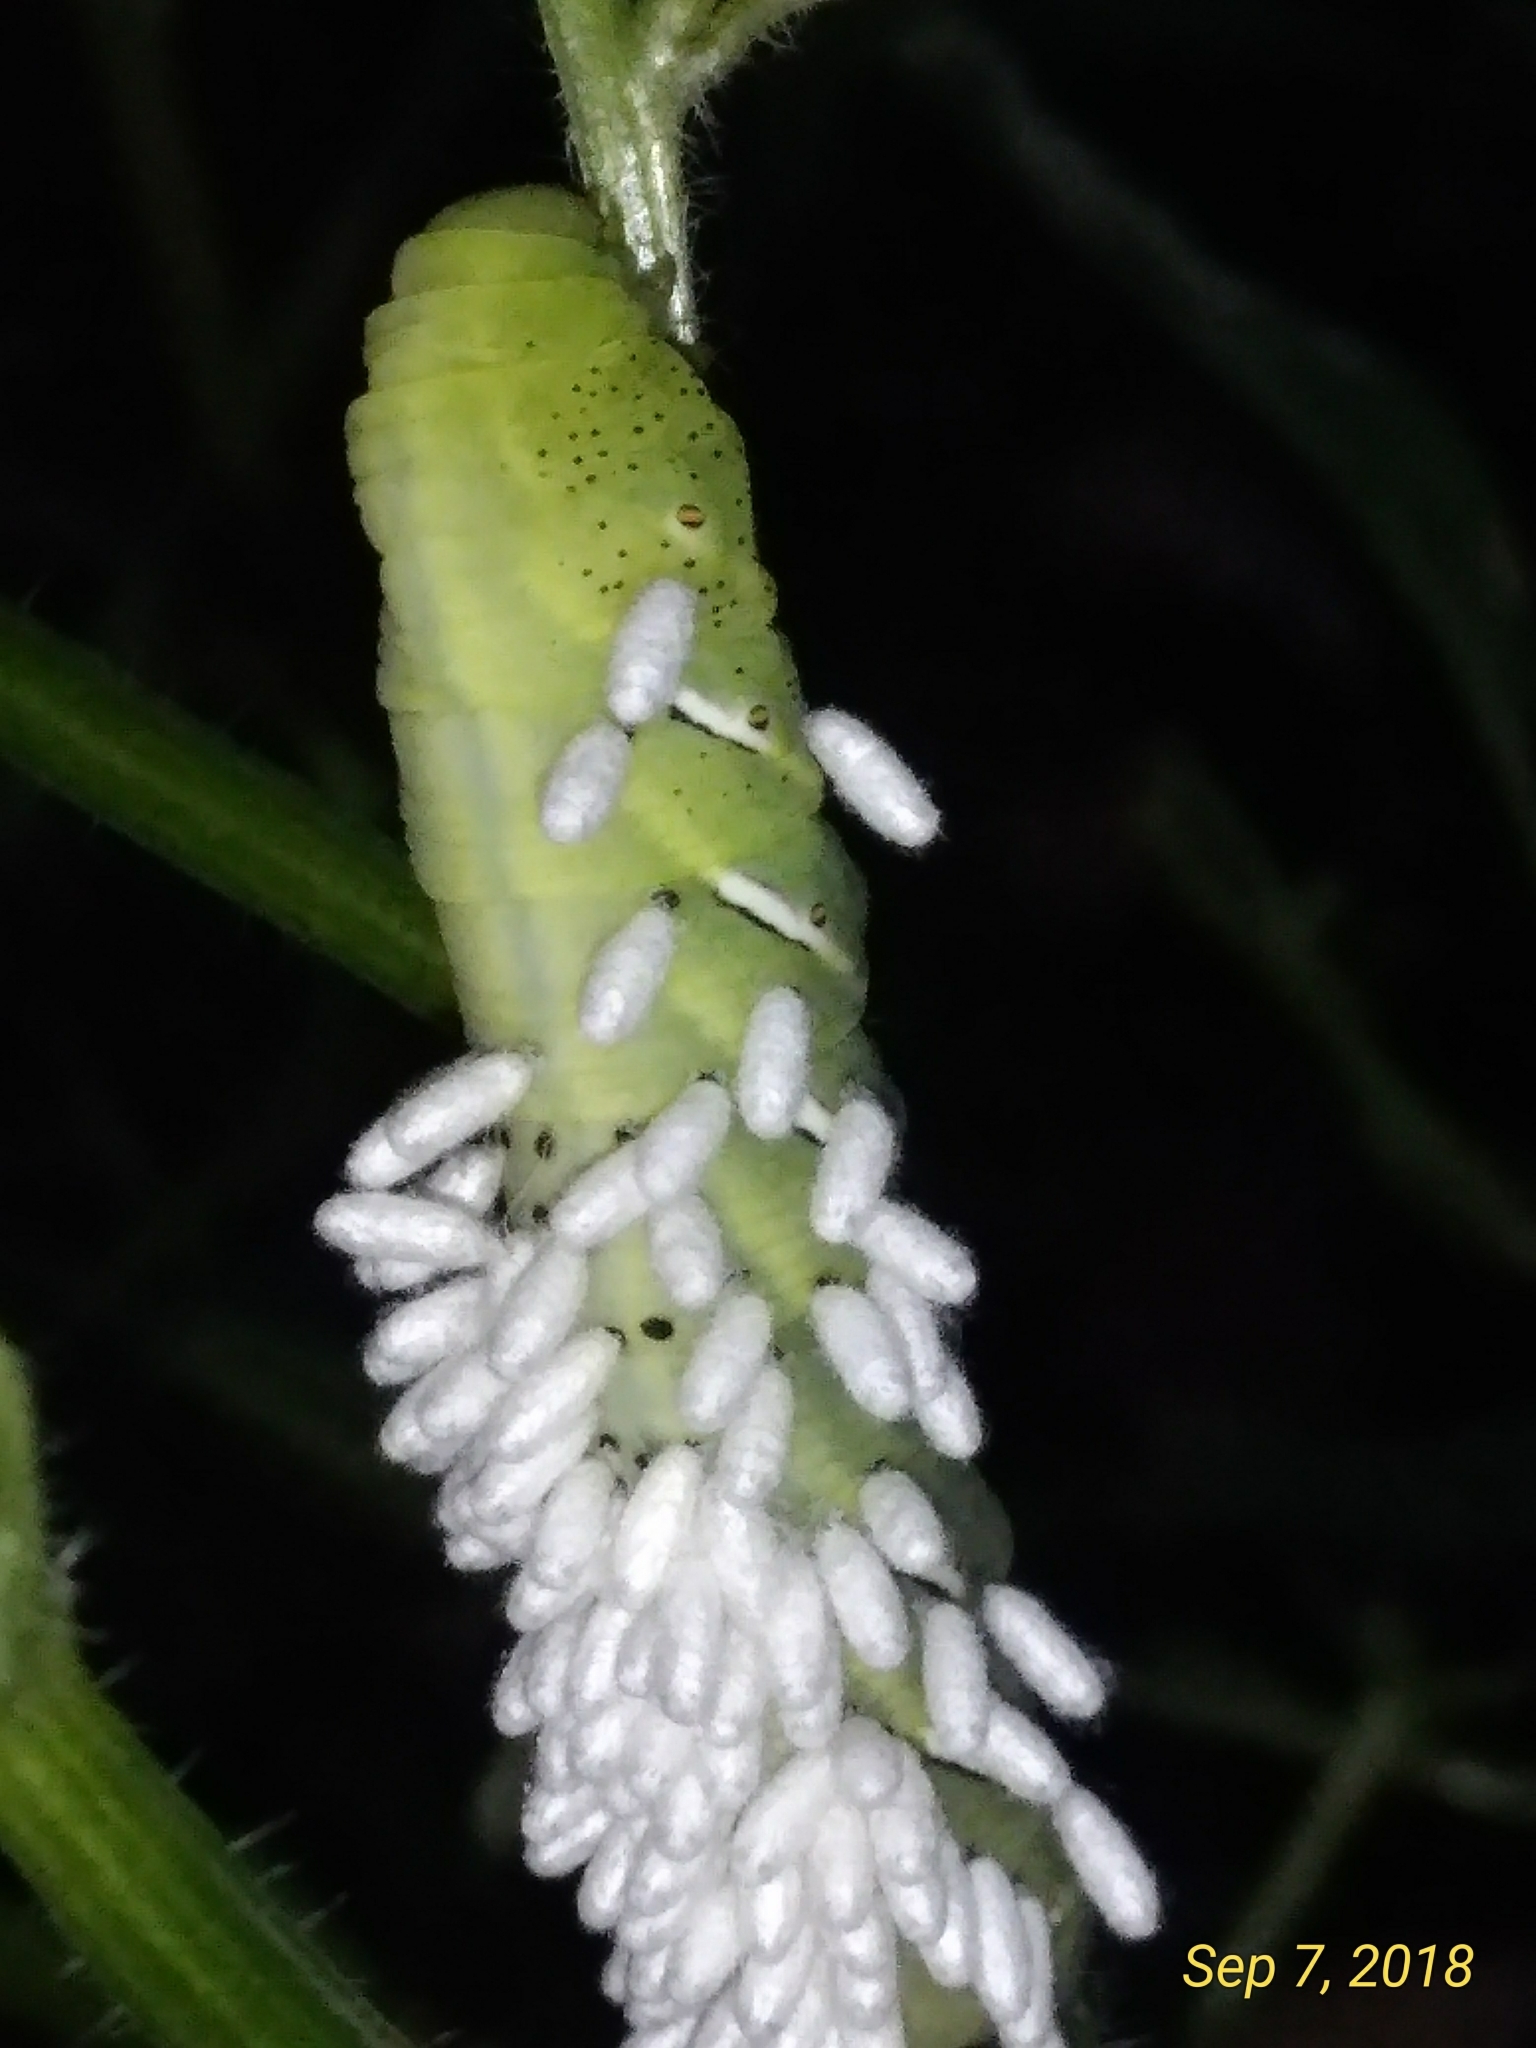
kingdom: Animalia
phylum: Arthropoda
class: Insecta
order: Lepidoptera
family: Sphingidae
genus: Eumorpha
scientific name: Eumorpha fasciatus
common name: Banded sphinx
